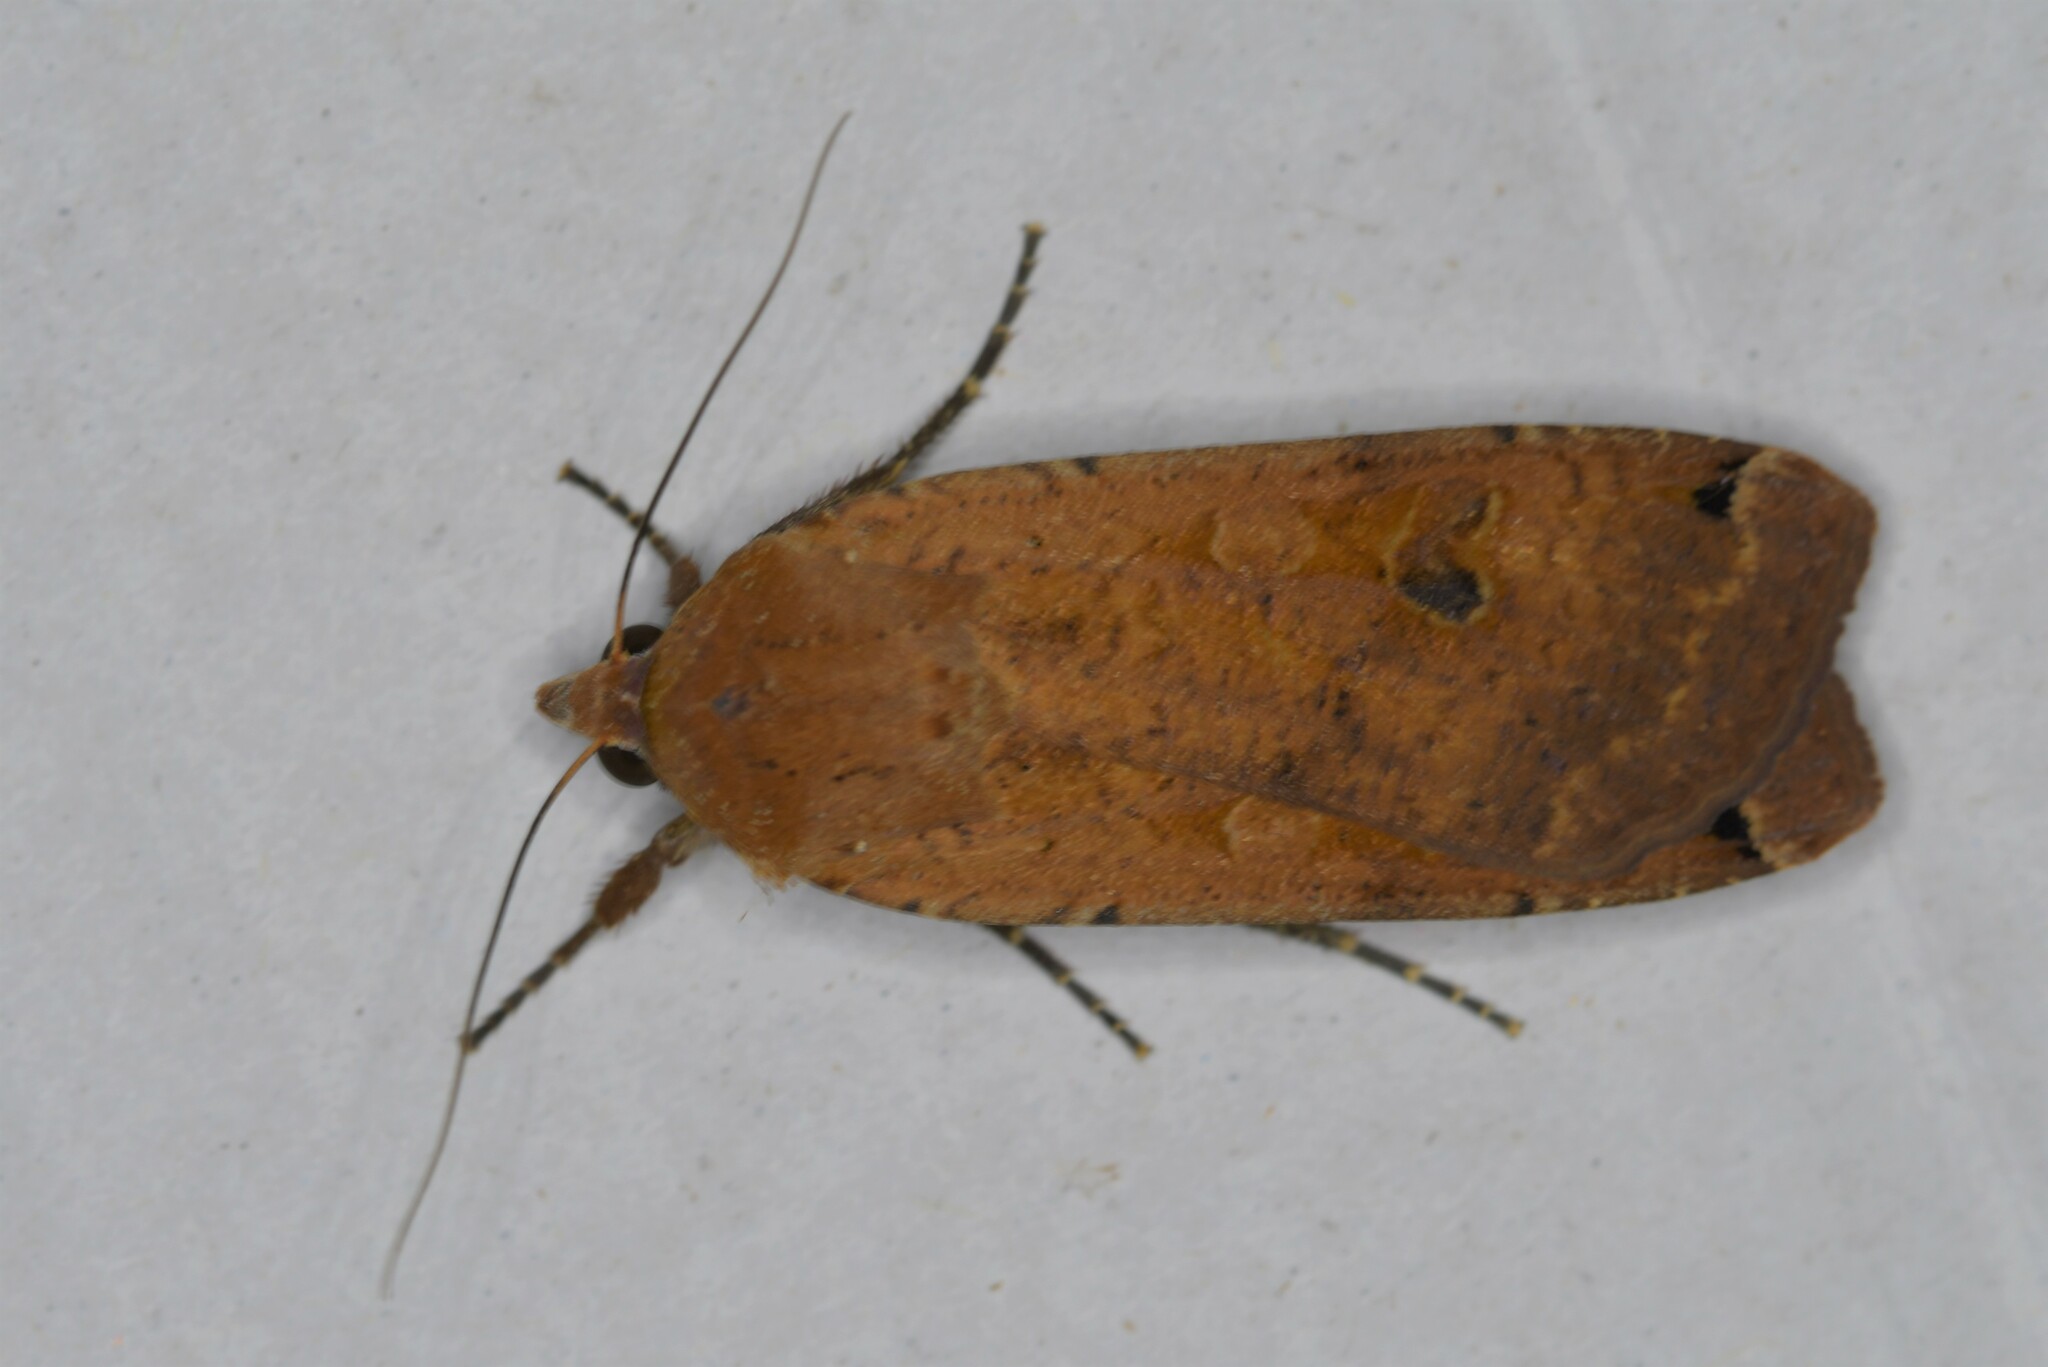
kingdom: Animalia
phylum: Arthropoda
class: Insecta
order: Lepidoptera
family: Noctuidae
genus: Noctua
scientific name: Noctua pronuba
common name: Large yellow underwing
